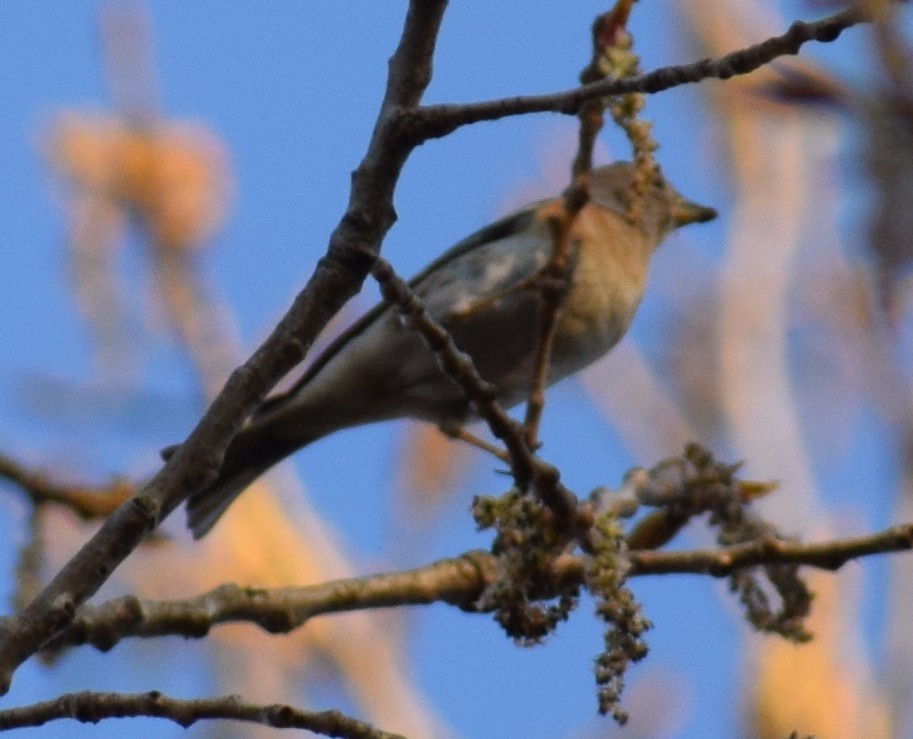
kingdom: Animalia
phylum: Chordata
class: Aves
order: Passeriformes
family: Fringillidae
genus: Fringilla
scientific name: Fringilla montifringilla
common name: Brambling
